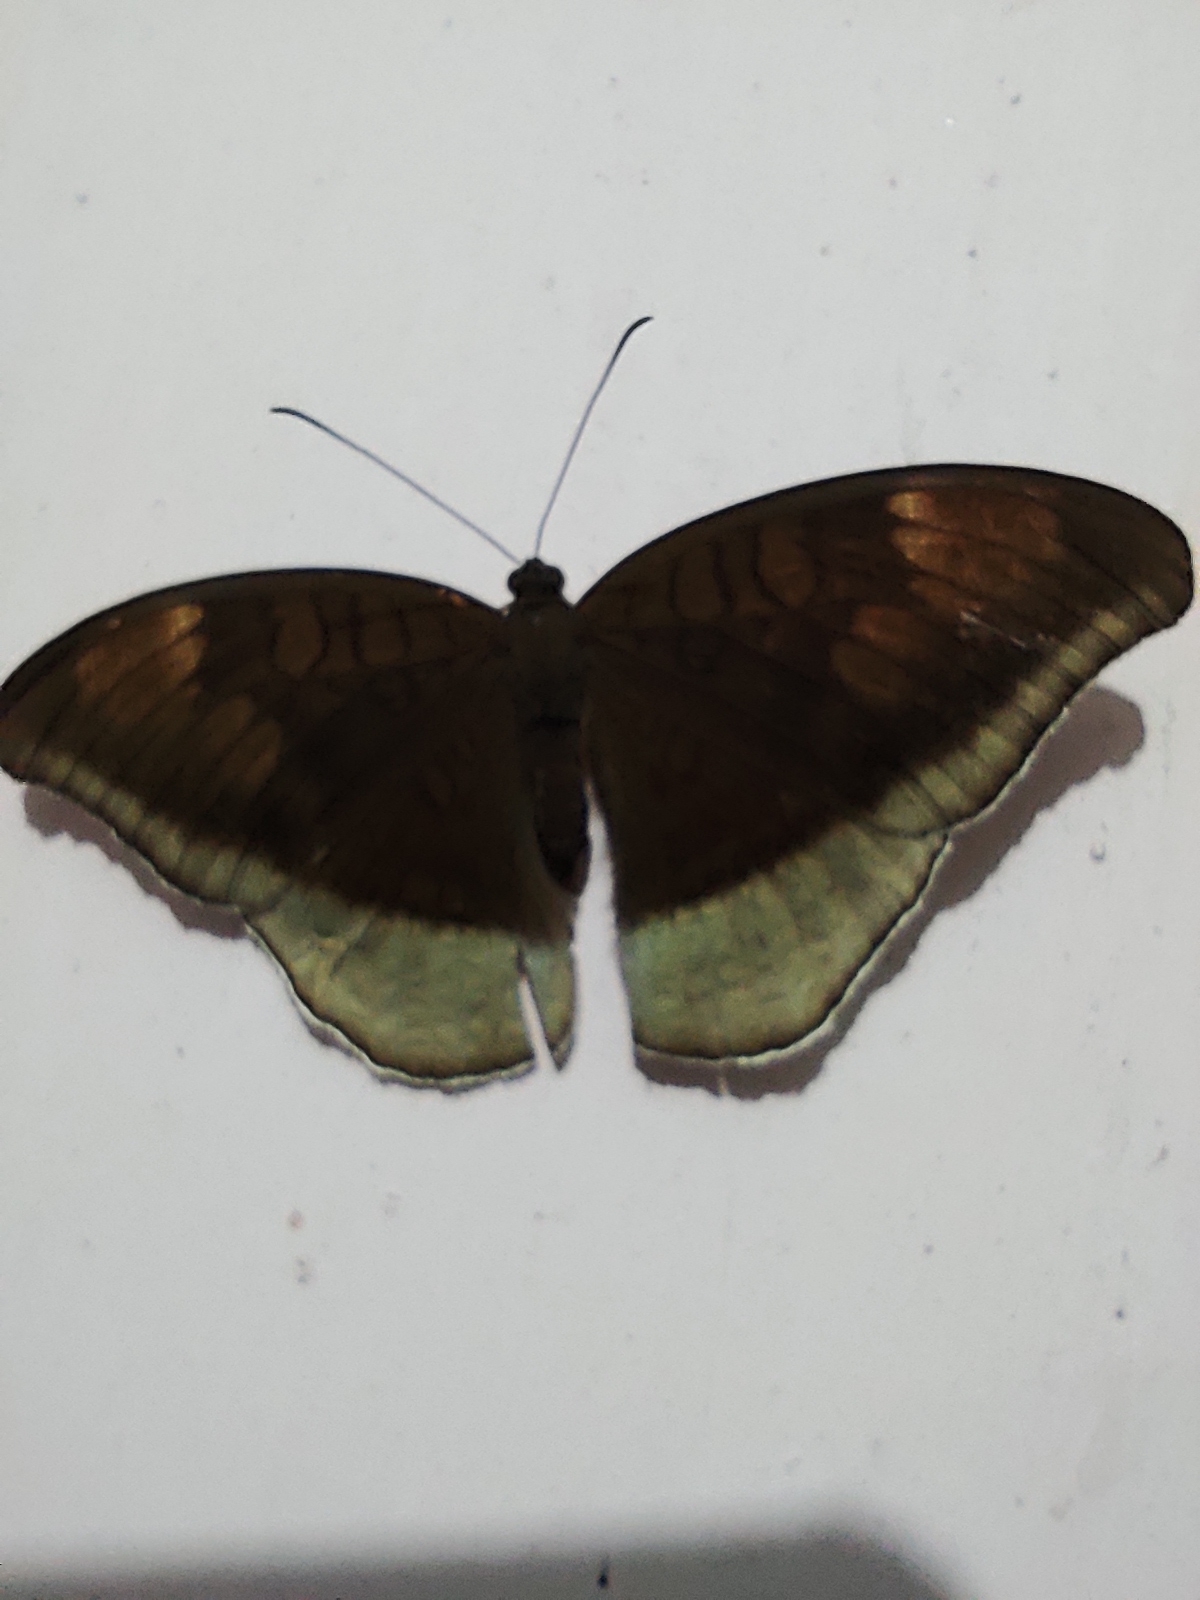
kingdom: Animalia
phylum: Arthropoda
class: Insecta
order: Lepidoptera
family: Nymphalidae
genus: Tanaecia
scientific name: Tanaecia lepidea
